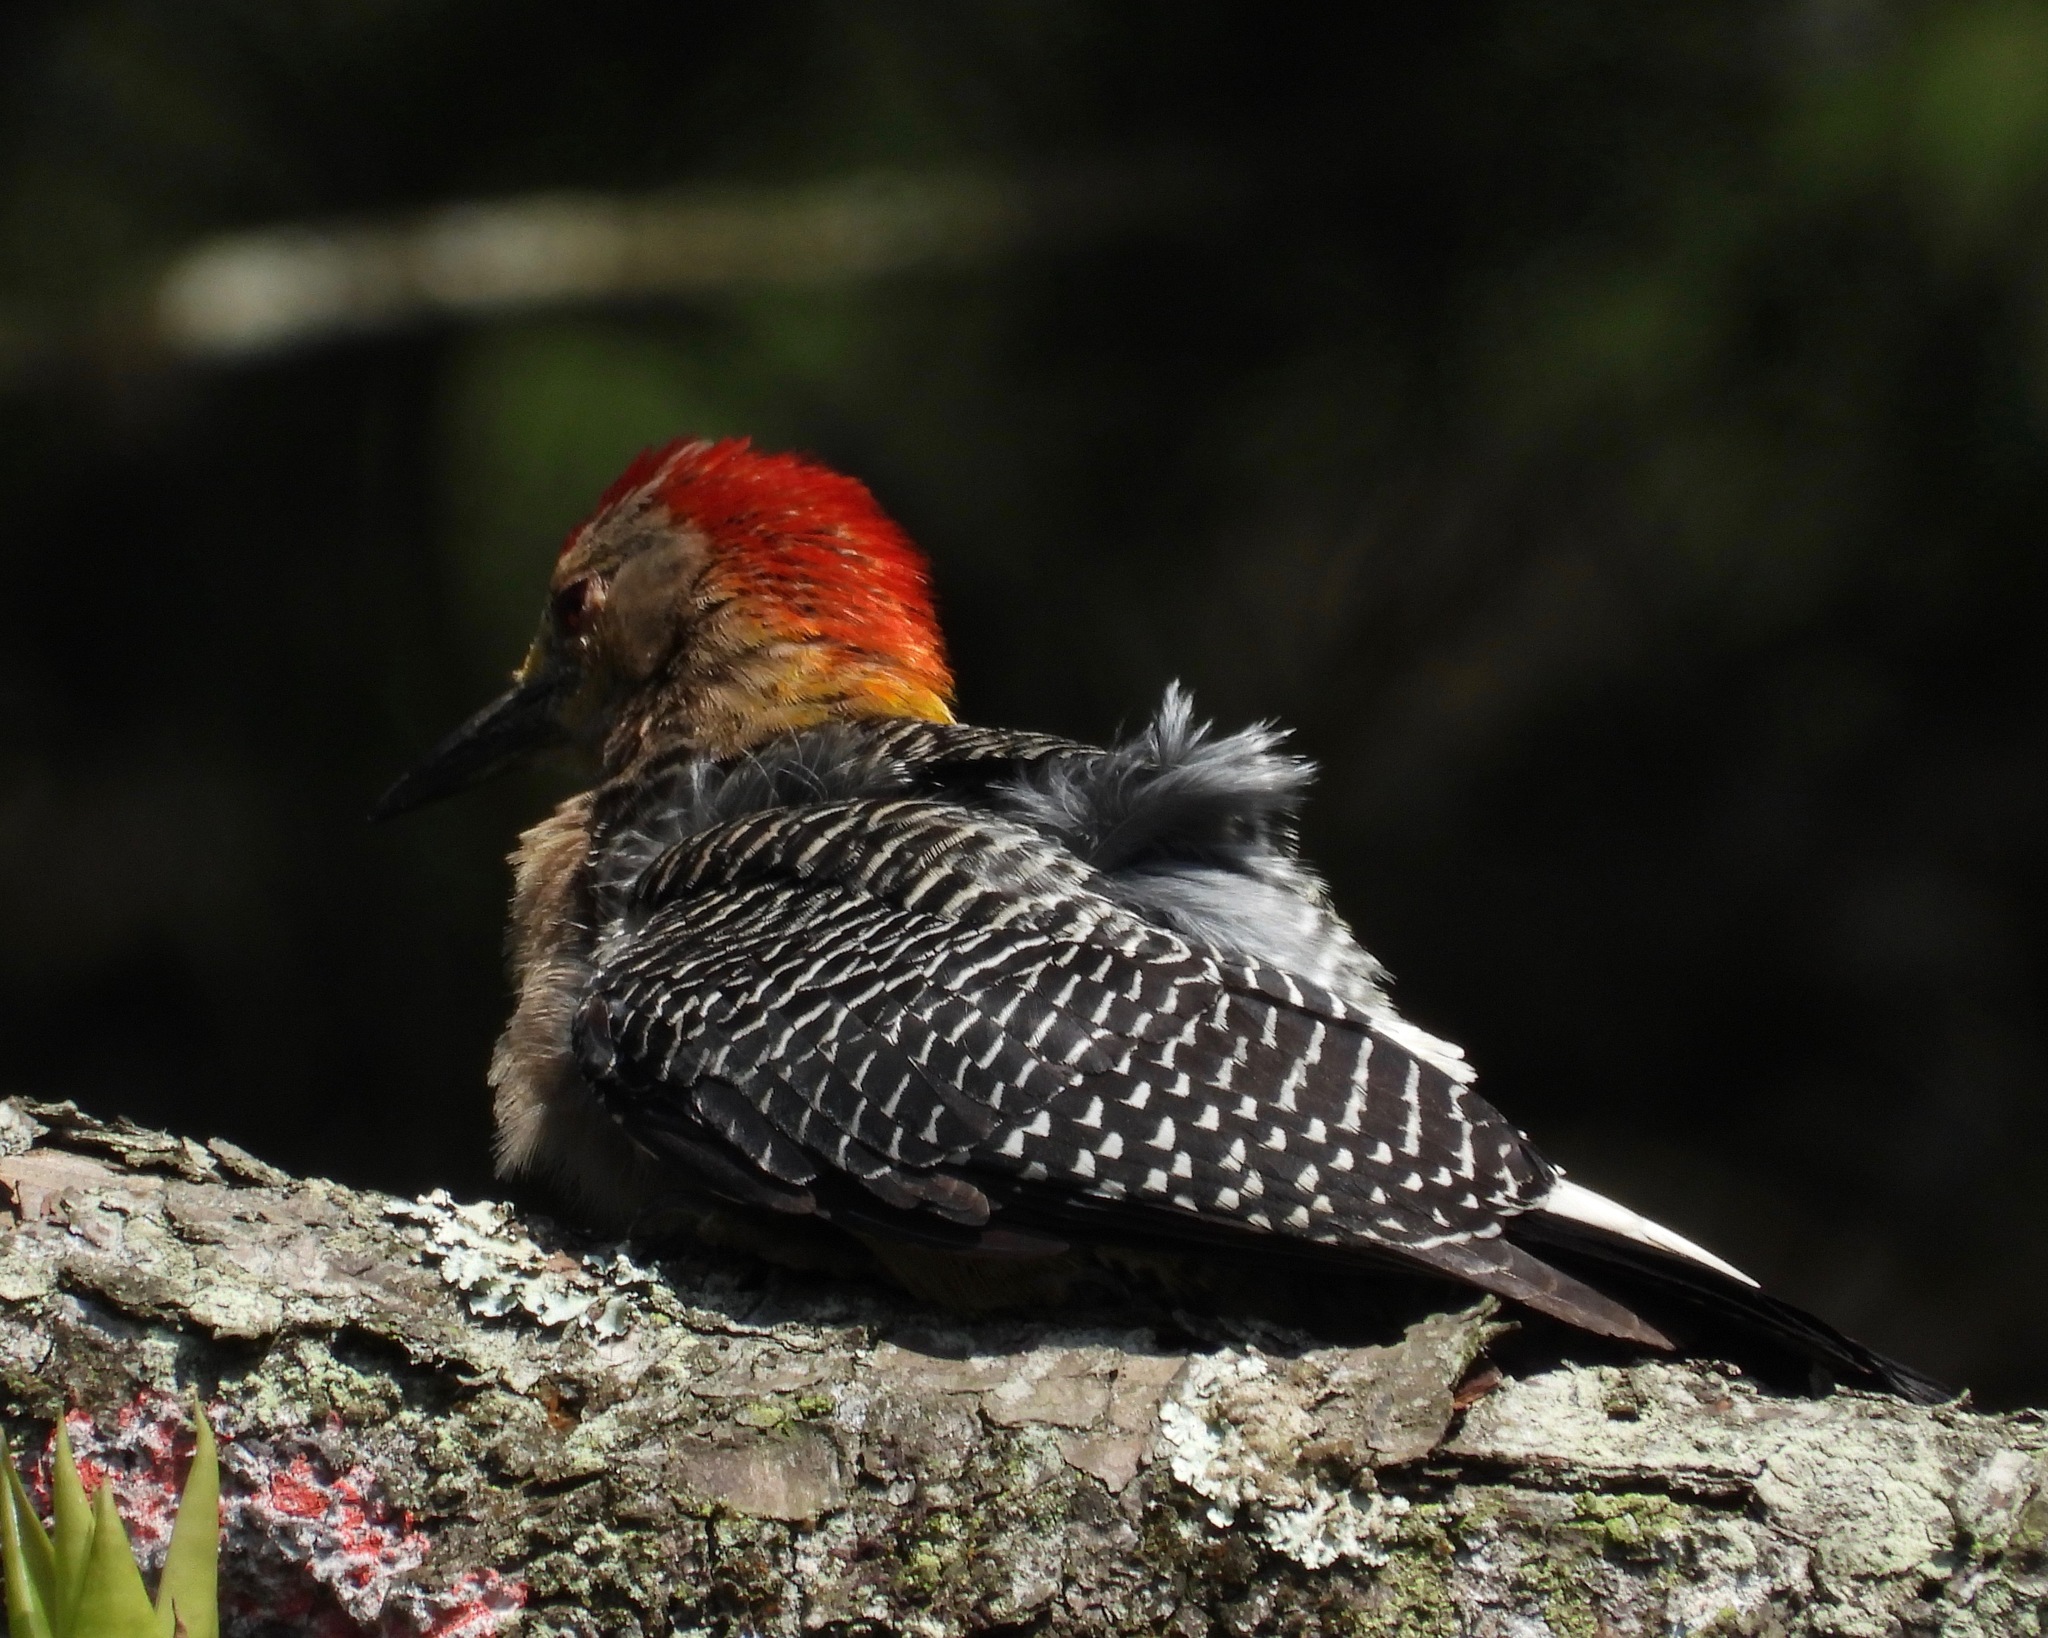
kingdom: Animalia
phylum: Chordata
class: Aves
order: Piciformes
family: Picidae
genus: Melanerpes
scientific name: Melanerpes santacruzi
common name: Velasquez's woodpecker
